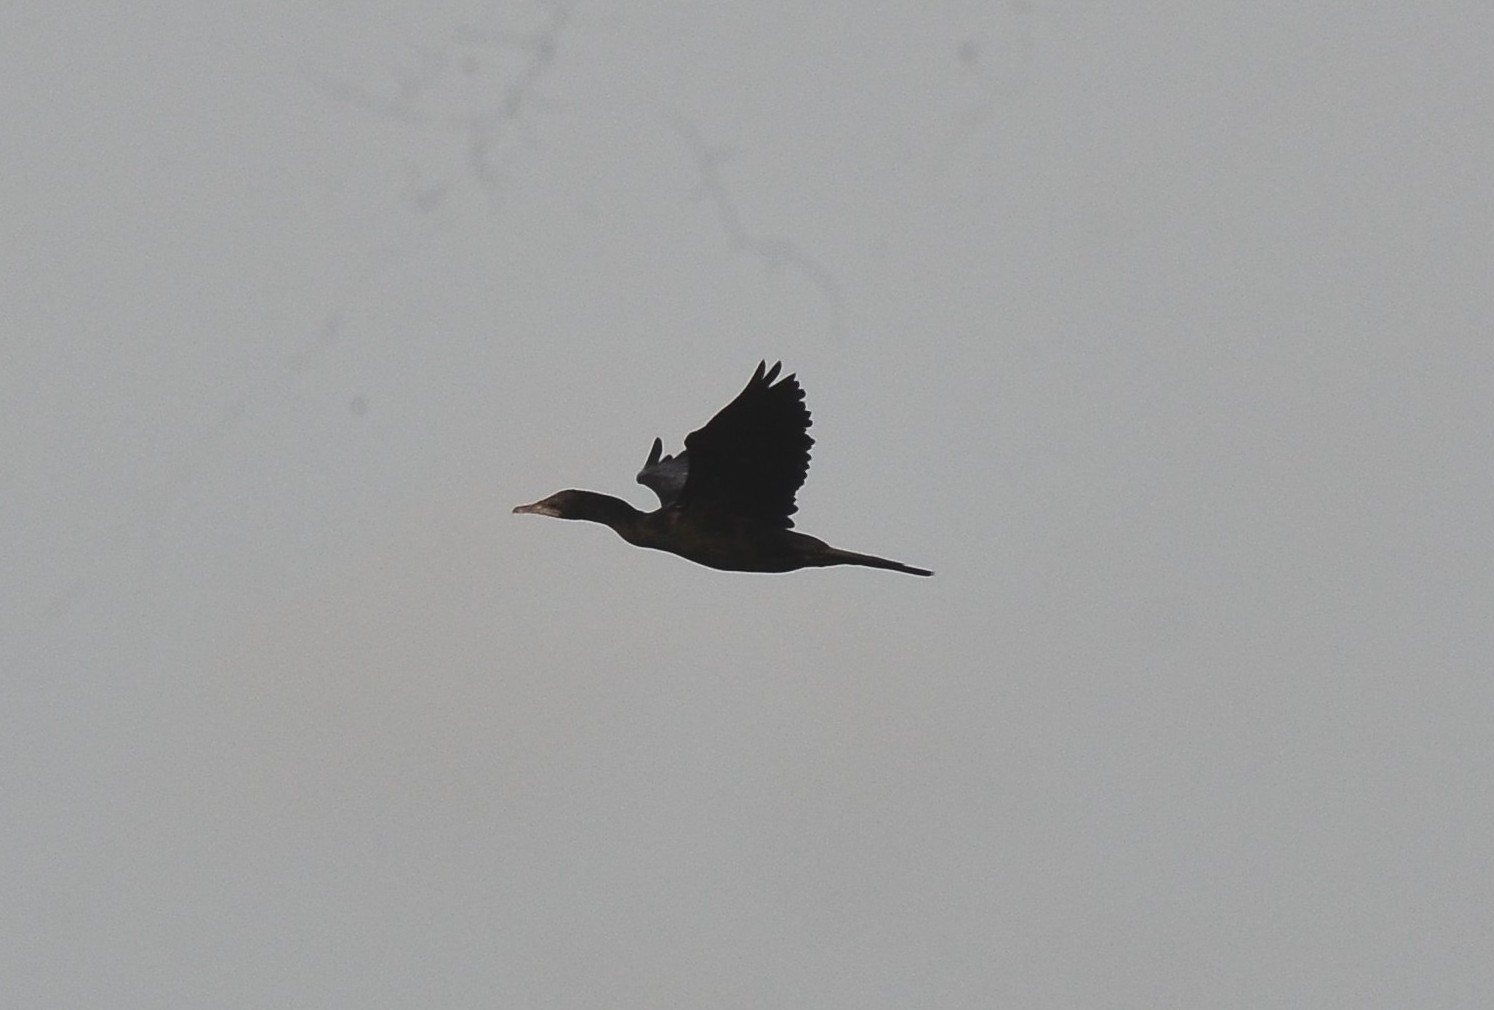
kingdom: Animalia
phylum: Chordata
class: Aves
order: Suliformes
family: Phalacrocoracidae
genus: Microcarbo
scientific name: Microcarbo niger
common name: Little cormorant
